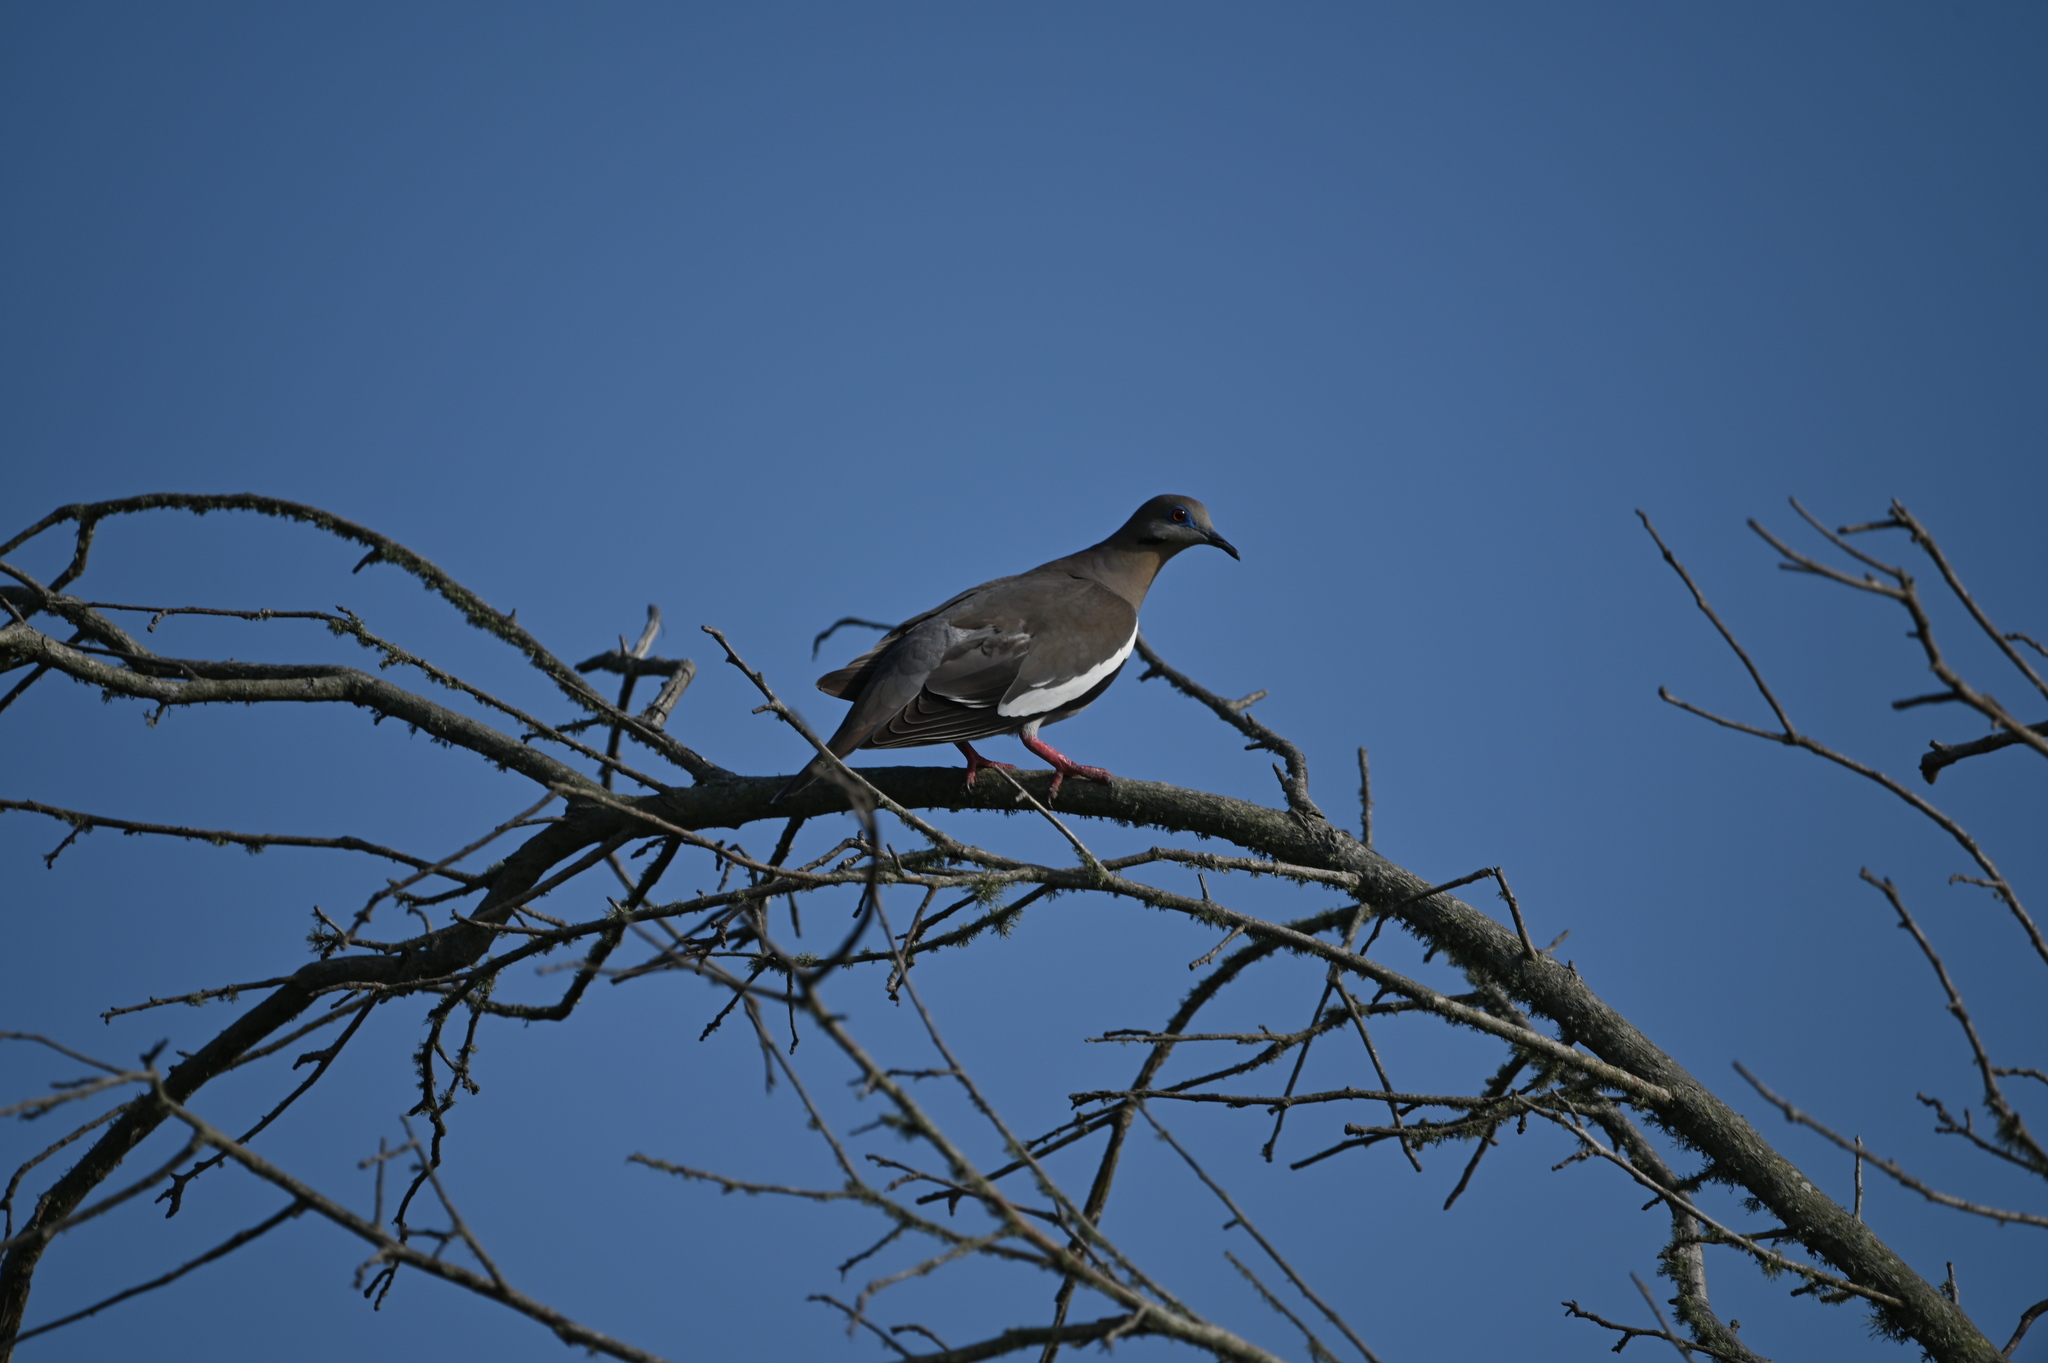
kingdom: Animalia
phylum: Chordata
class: Aves
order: Columbiformes
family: Columbidae
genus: Zenaida
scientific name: Zenaida asiatica
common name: White-winged dove
